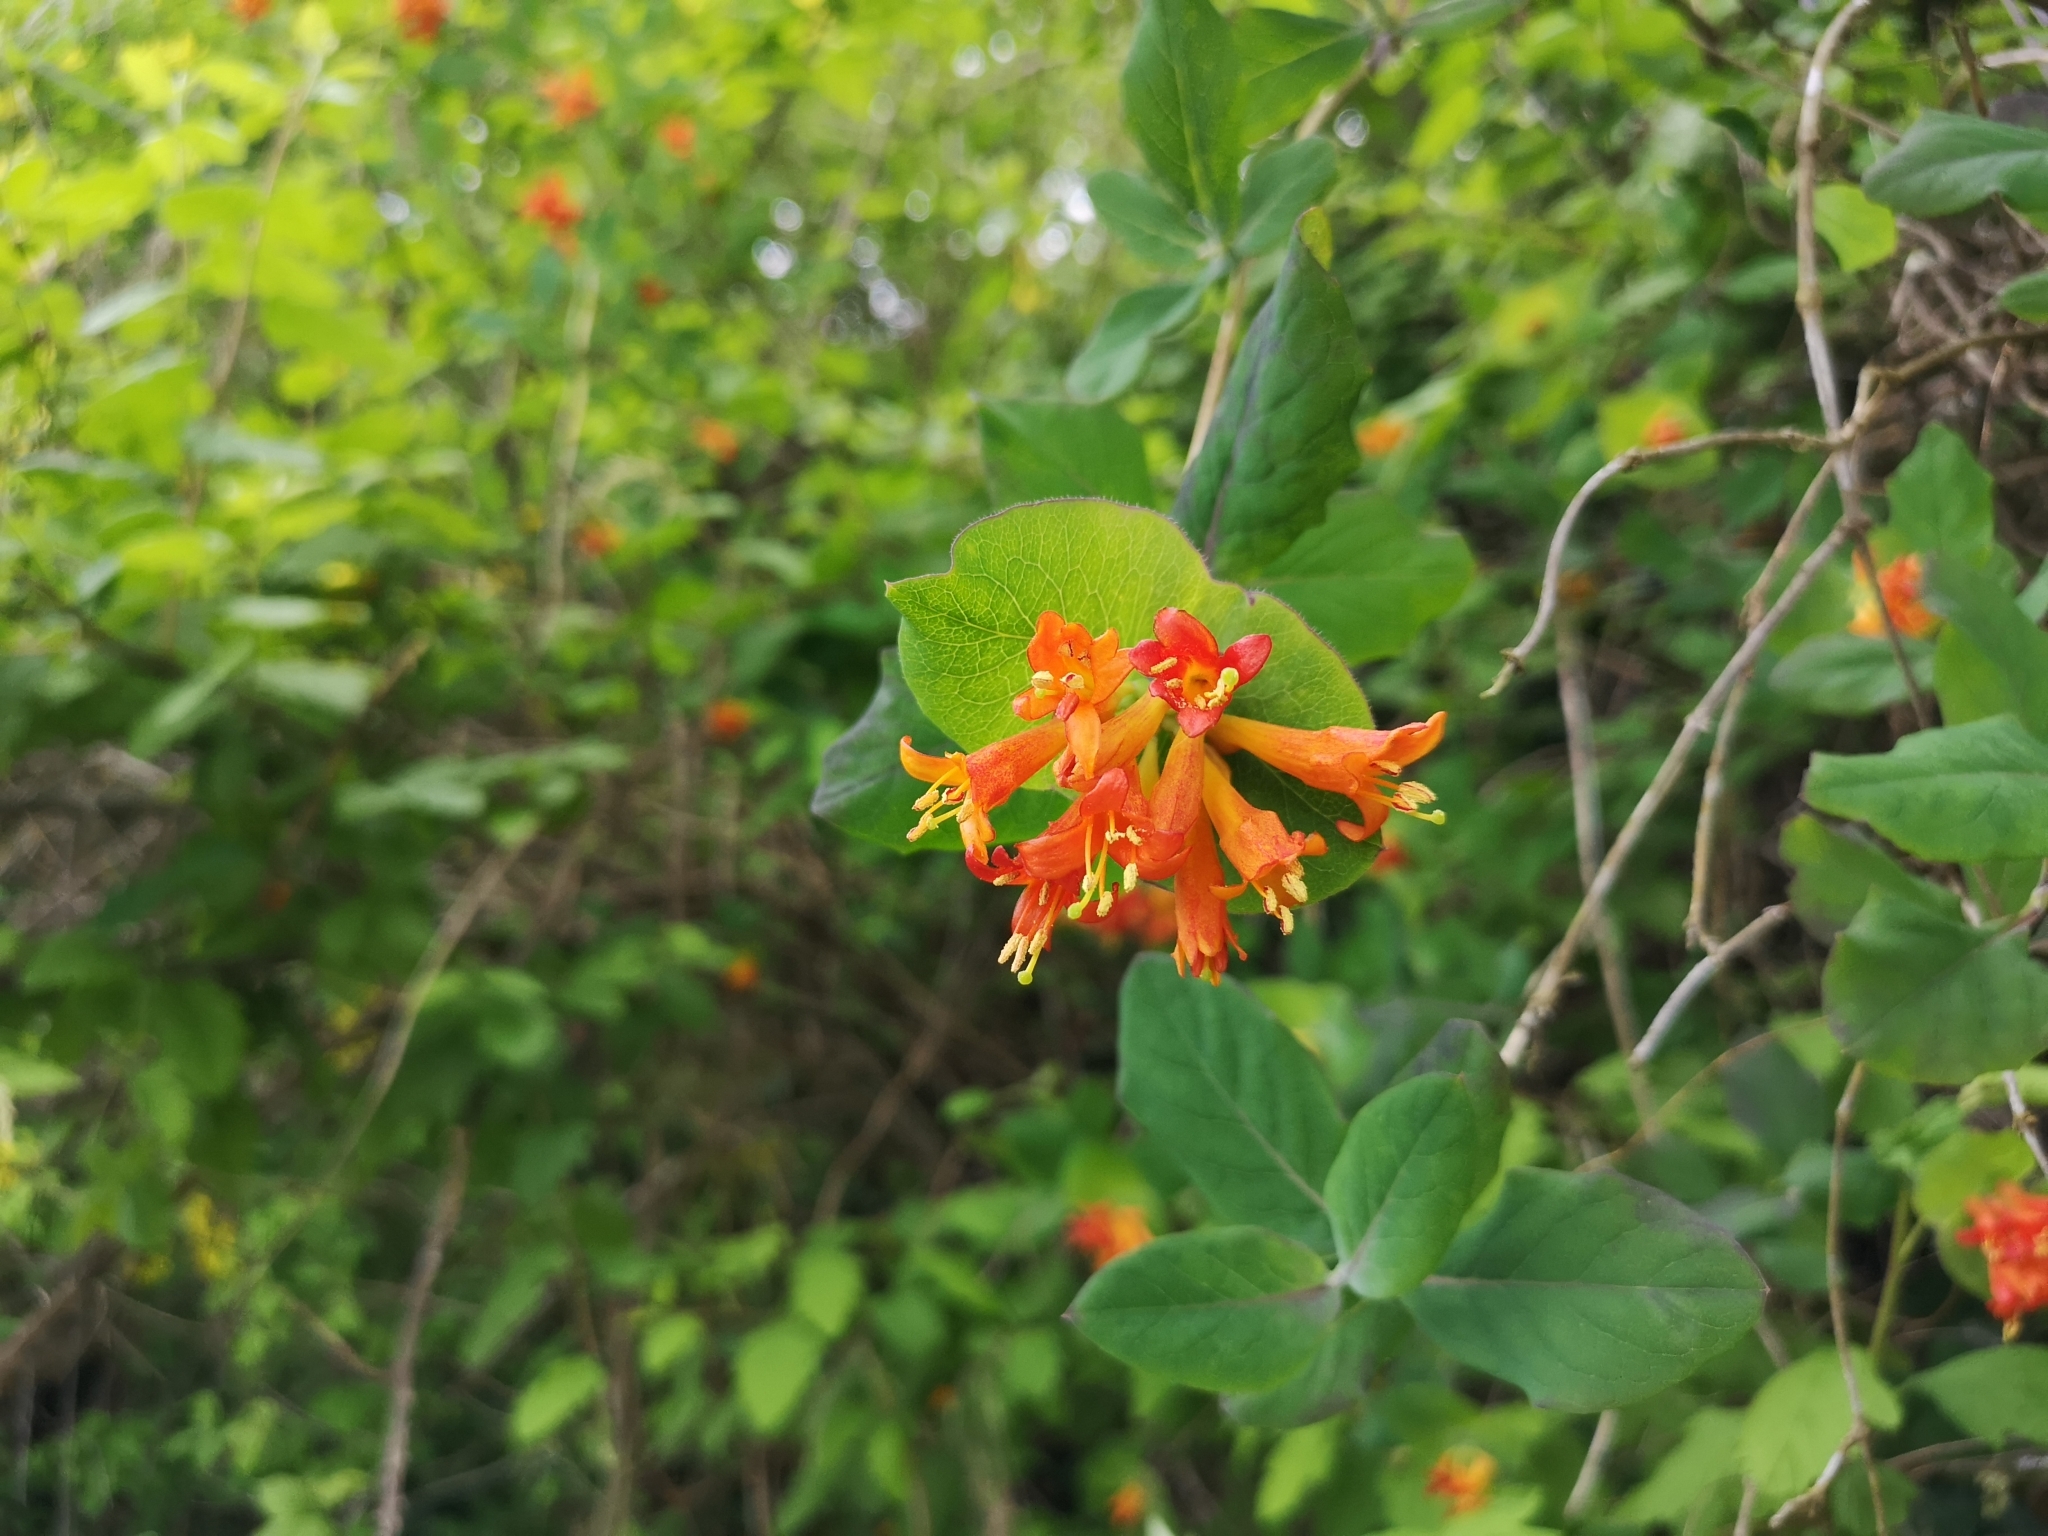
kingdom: Plantae
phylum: Tracheophyta
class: Magnoliopsida
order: Dipsacales
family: Caprifoliaceae
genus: Lonicera
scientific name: Lonicera ciliosa
